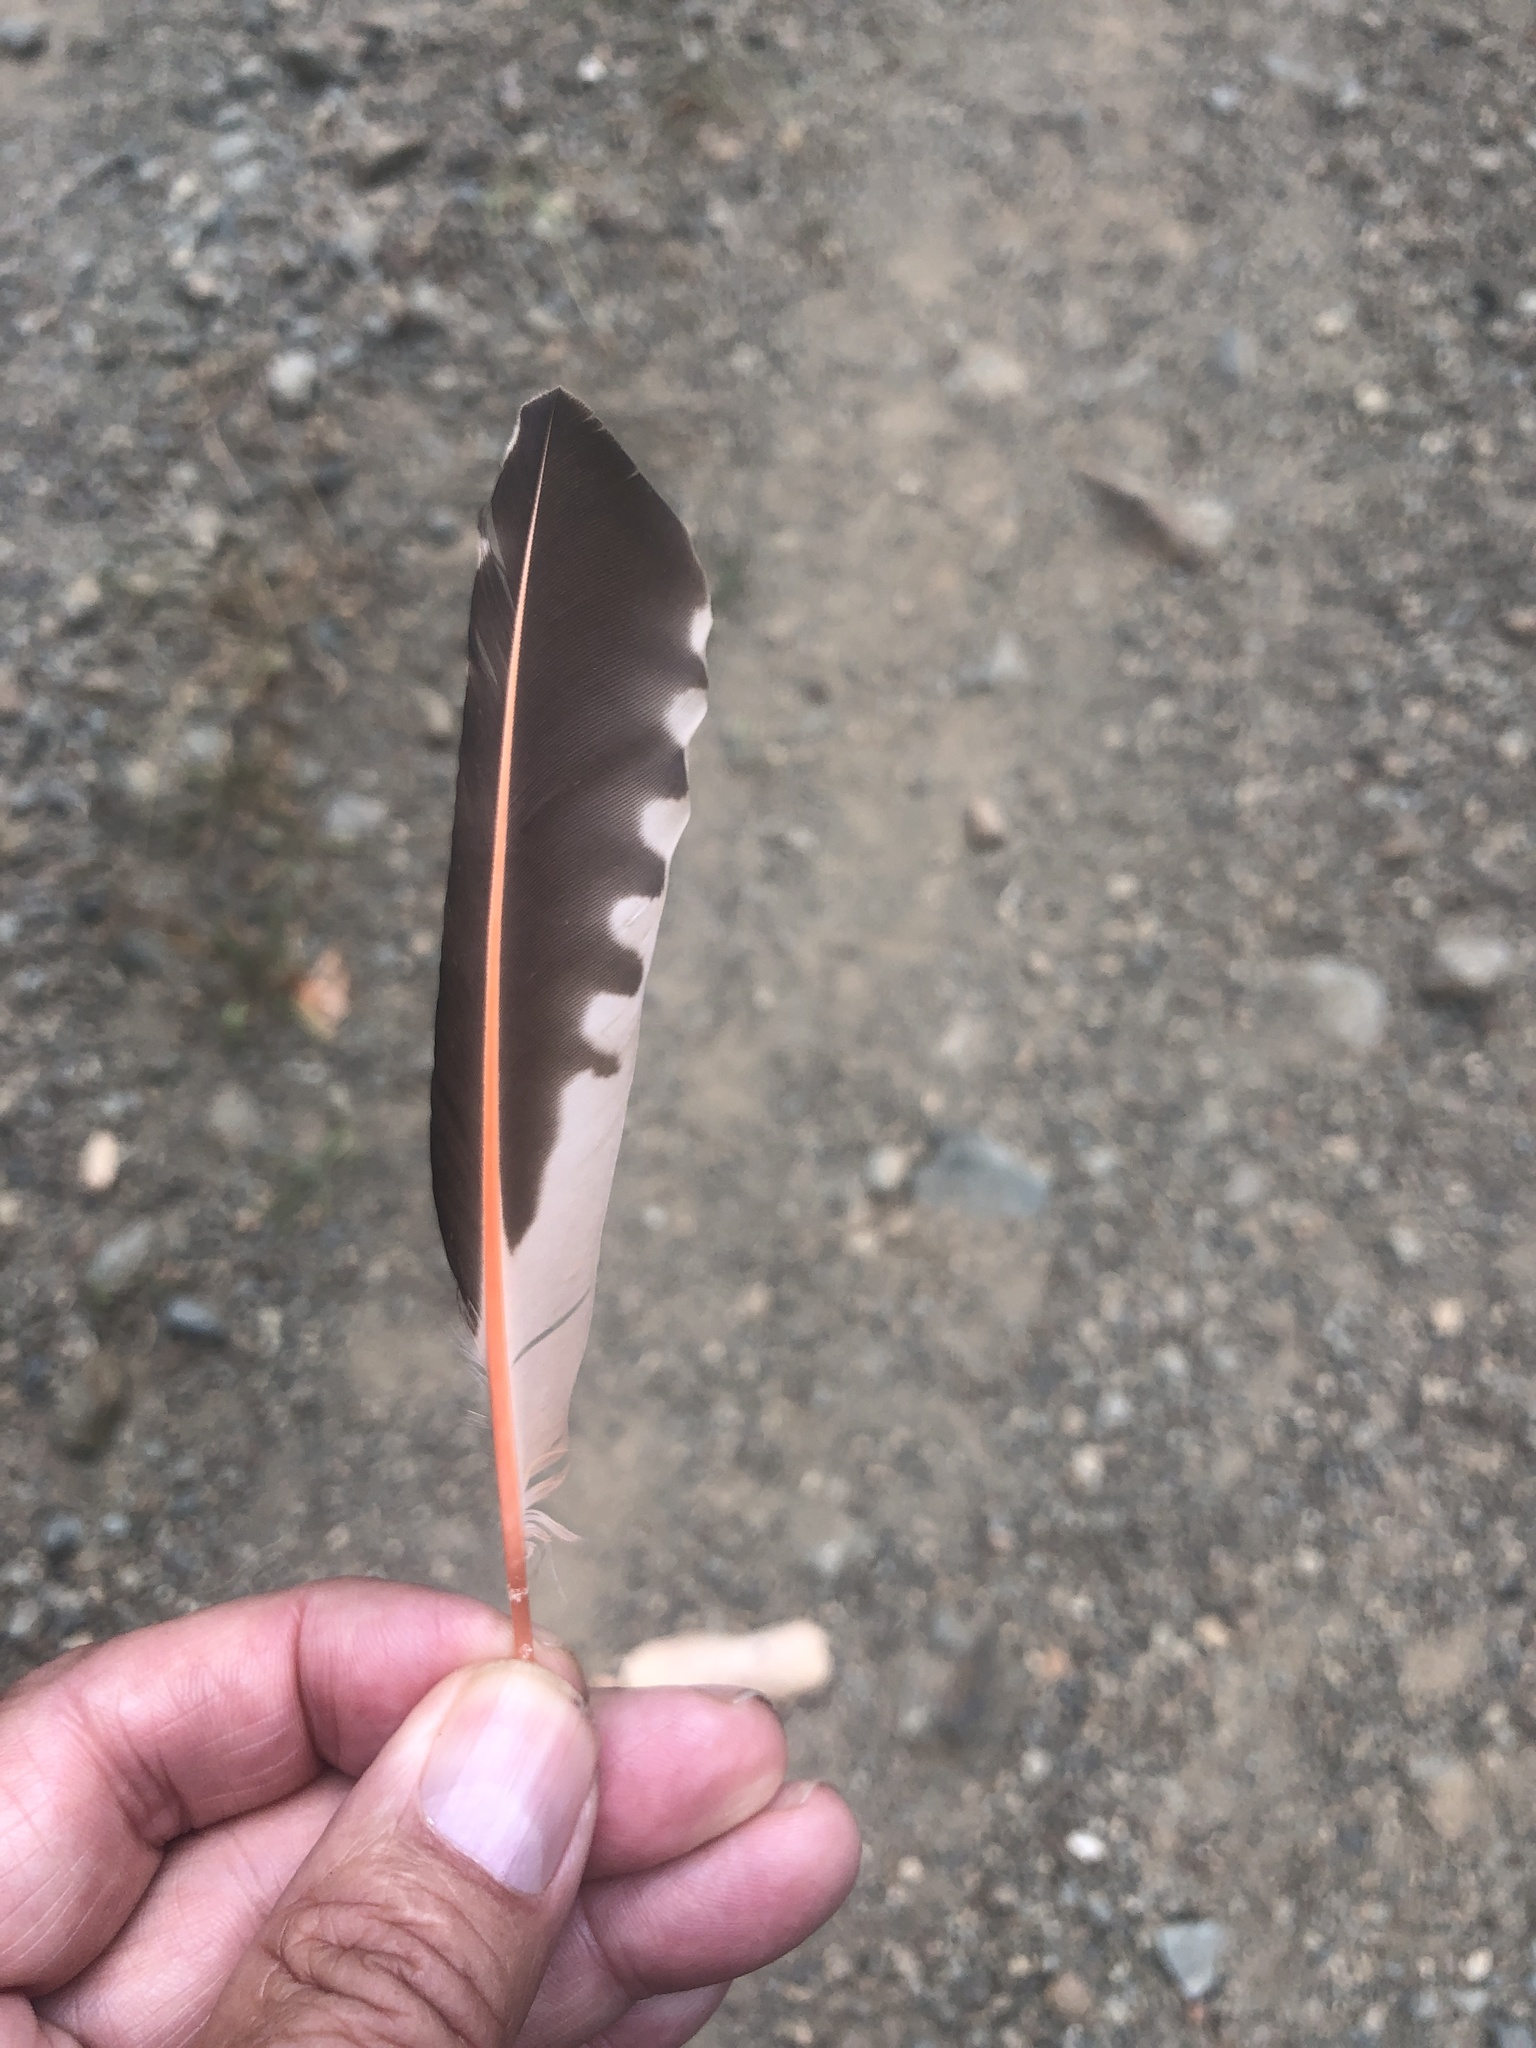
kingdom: Animalia
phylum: Chordata
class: Aves
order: Piciformes
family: Picidae
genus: Colaptes
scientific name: Colaptes auratus
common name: Northern flicker
